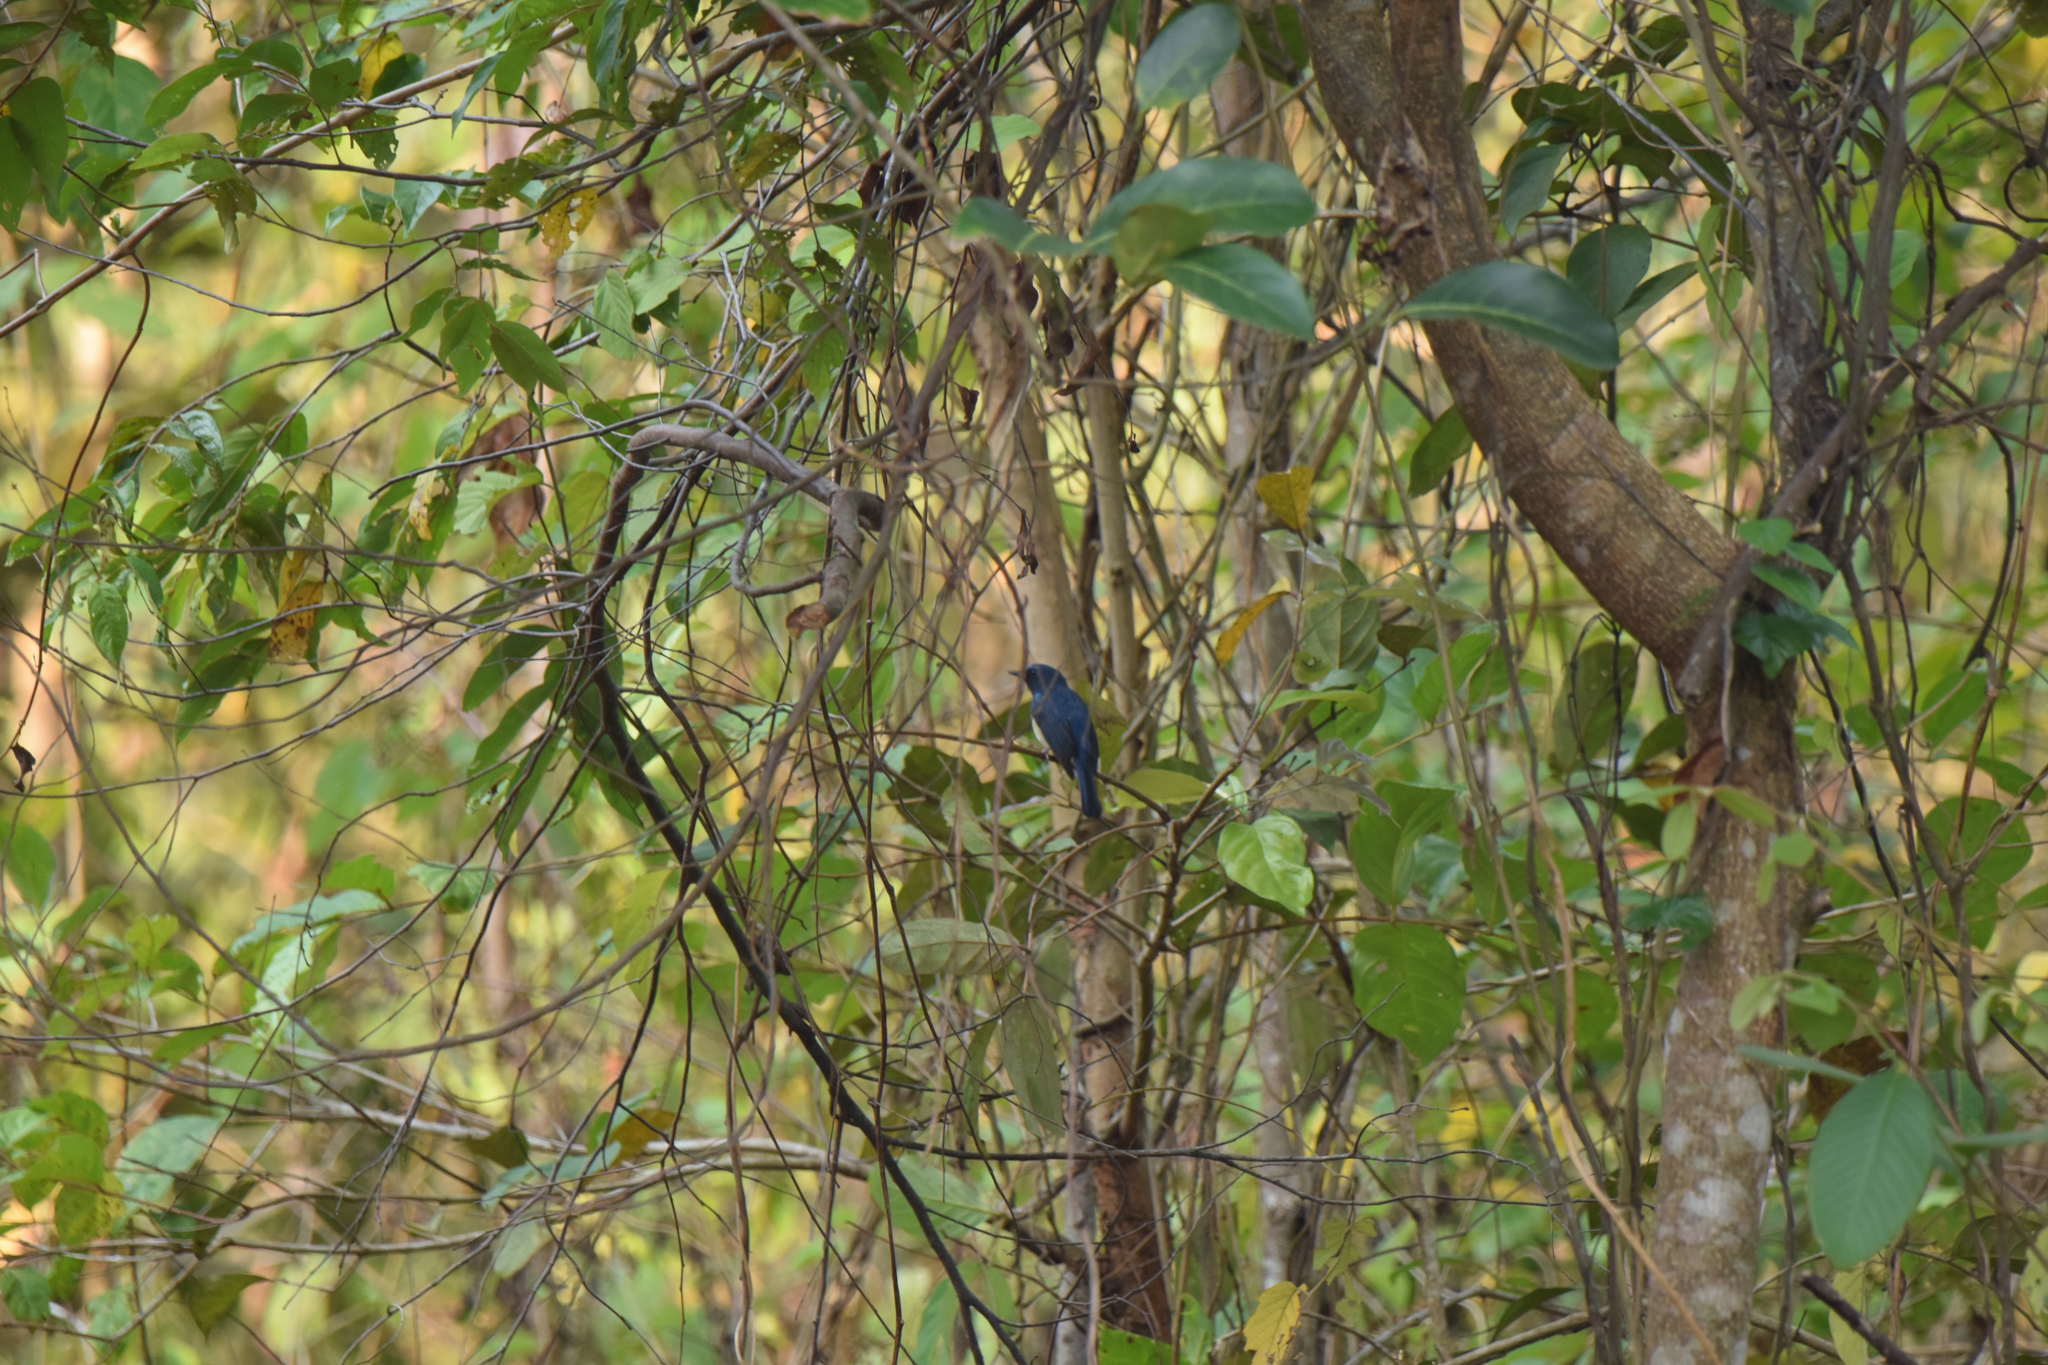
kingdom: Animalia
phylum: Chordata
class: Aves
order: Passeriformes
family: Muscicapidae
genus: Cyornis
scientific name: Cyornis hainanus
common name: Hainan blue flycatcher
